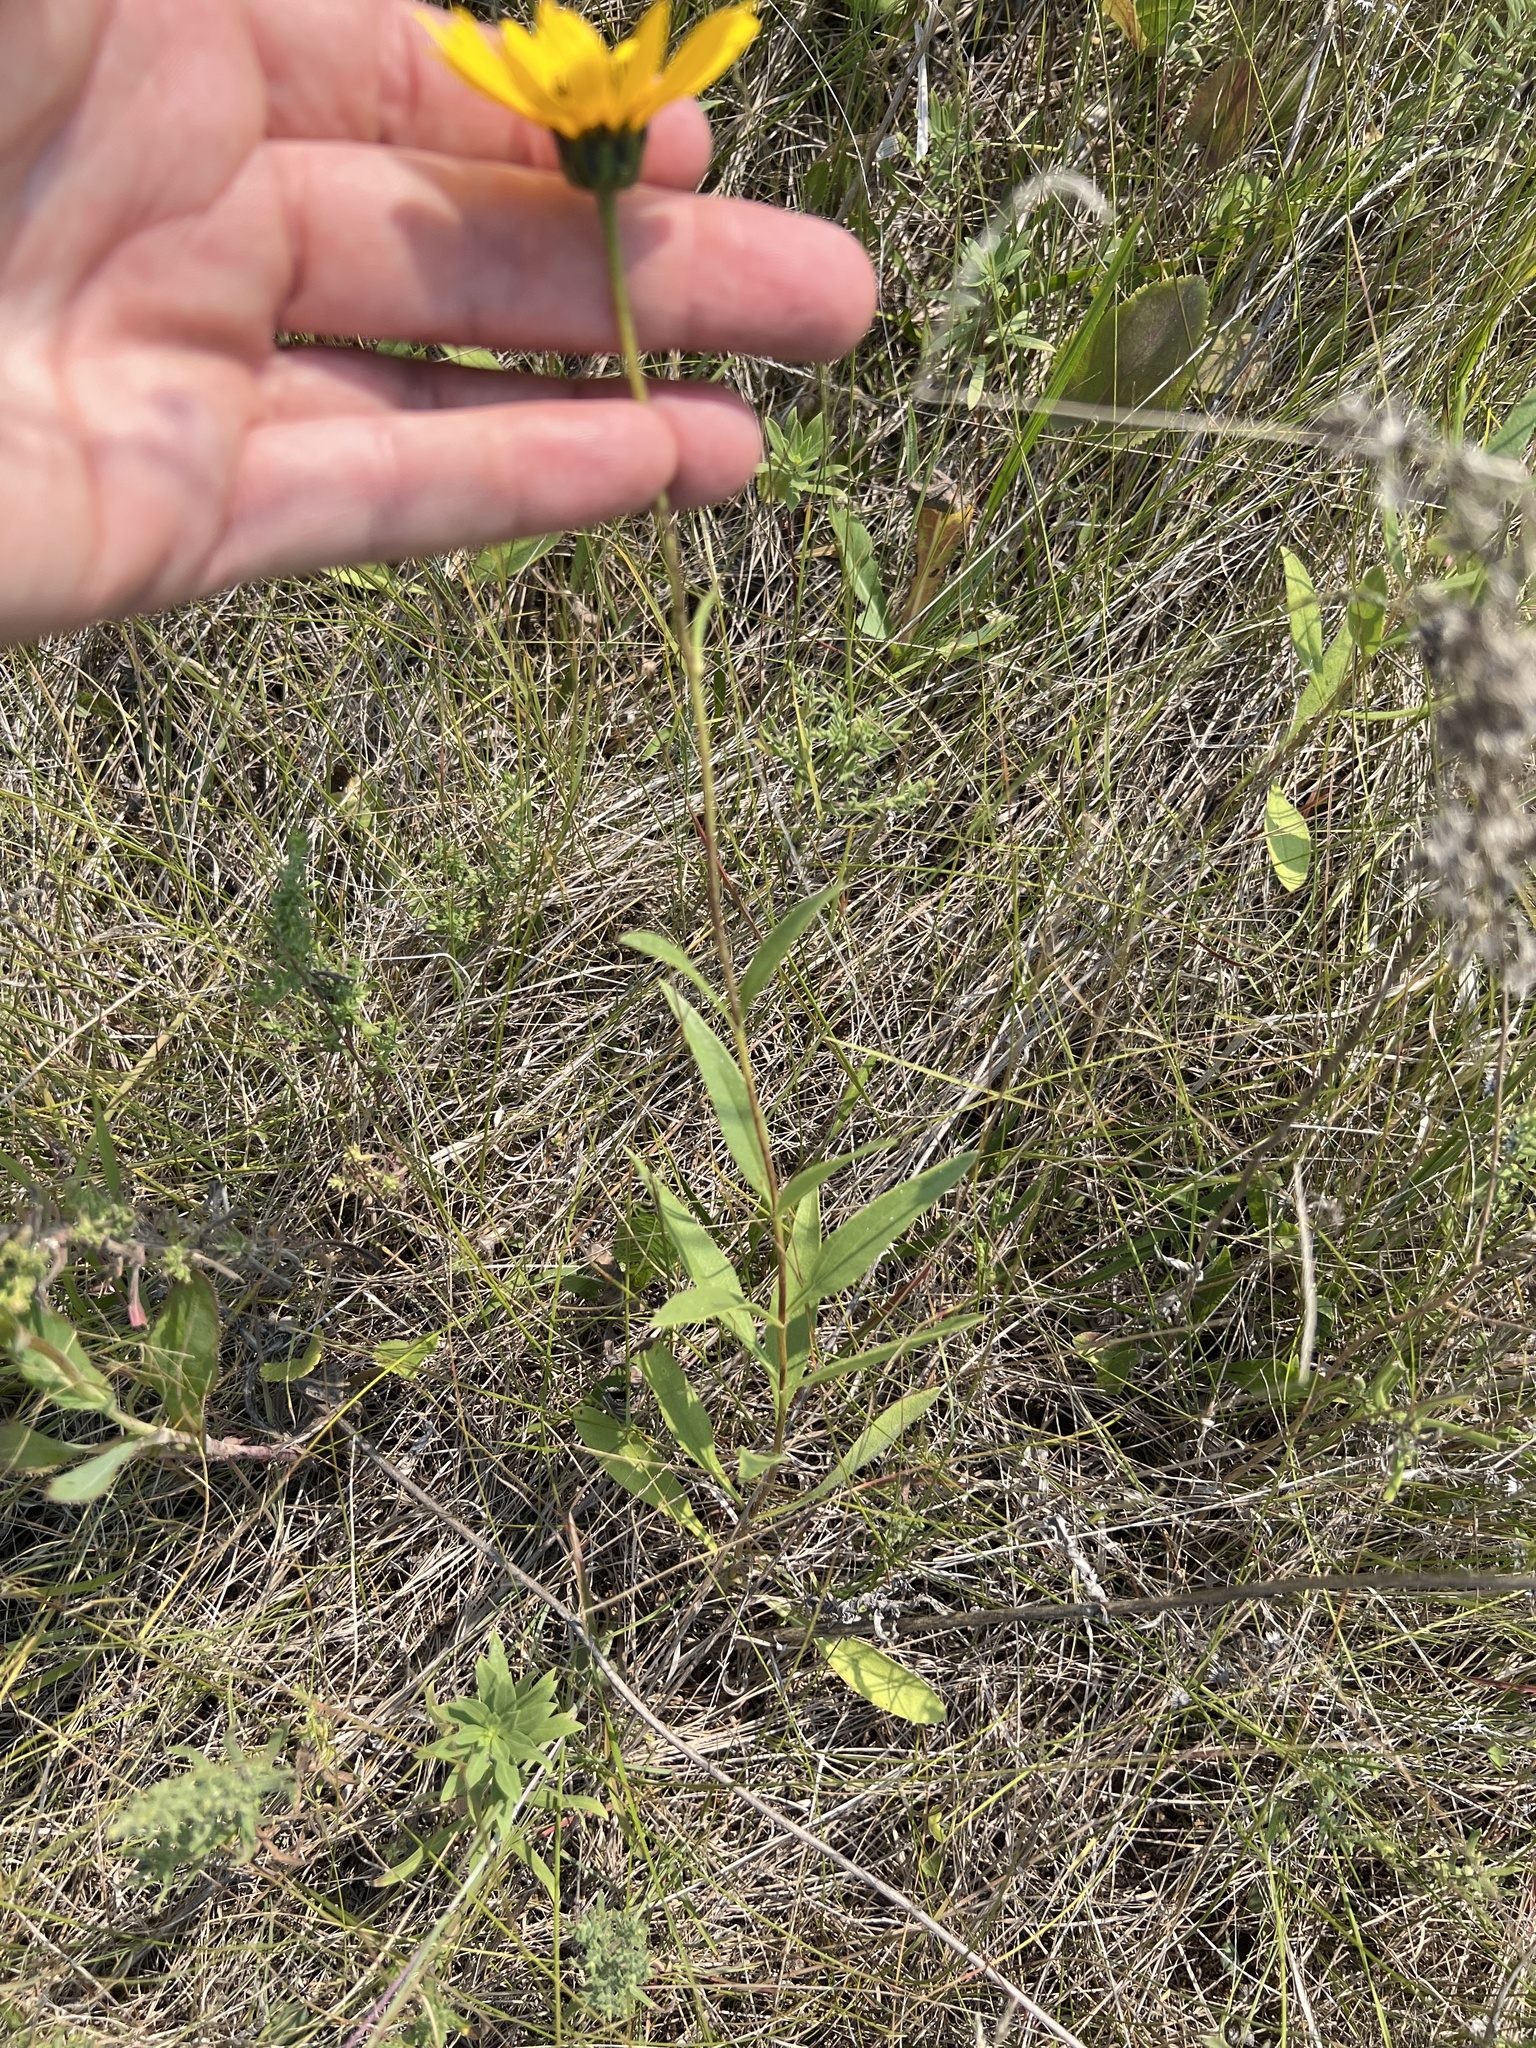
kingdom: Plantae
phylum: Tracheophyta
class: Magnoliopsida
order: Asterales
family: Asteraceae
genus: Helianthus
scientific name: Helianthus pauciflorus
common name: Stiff sunflower
